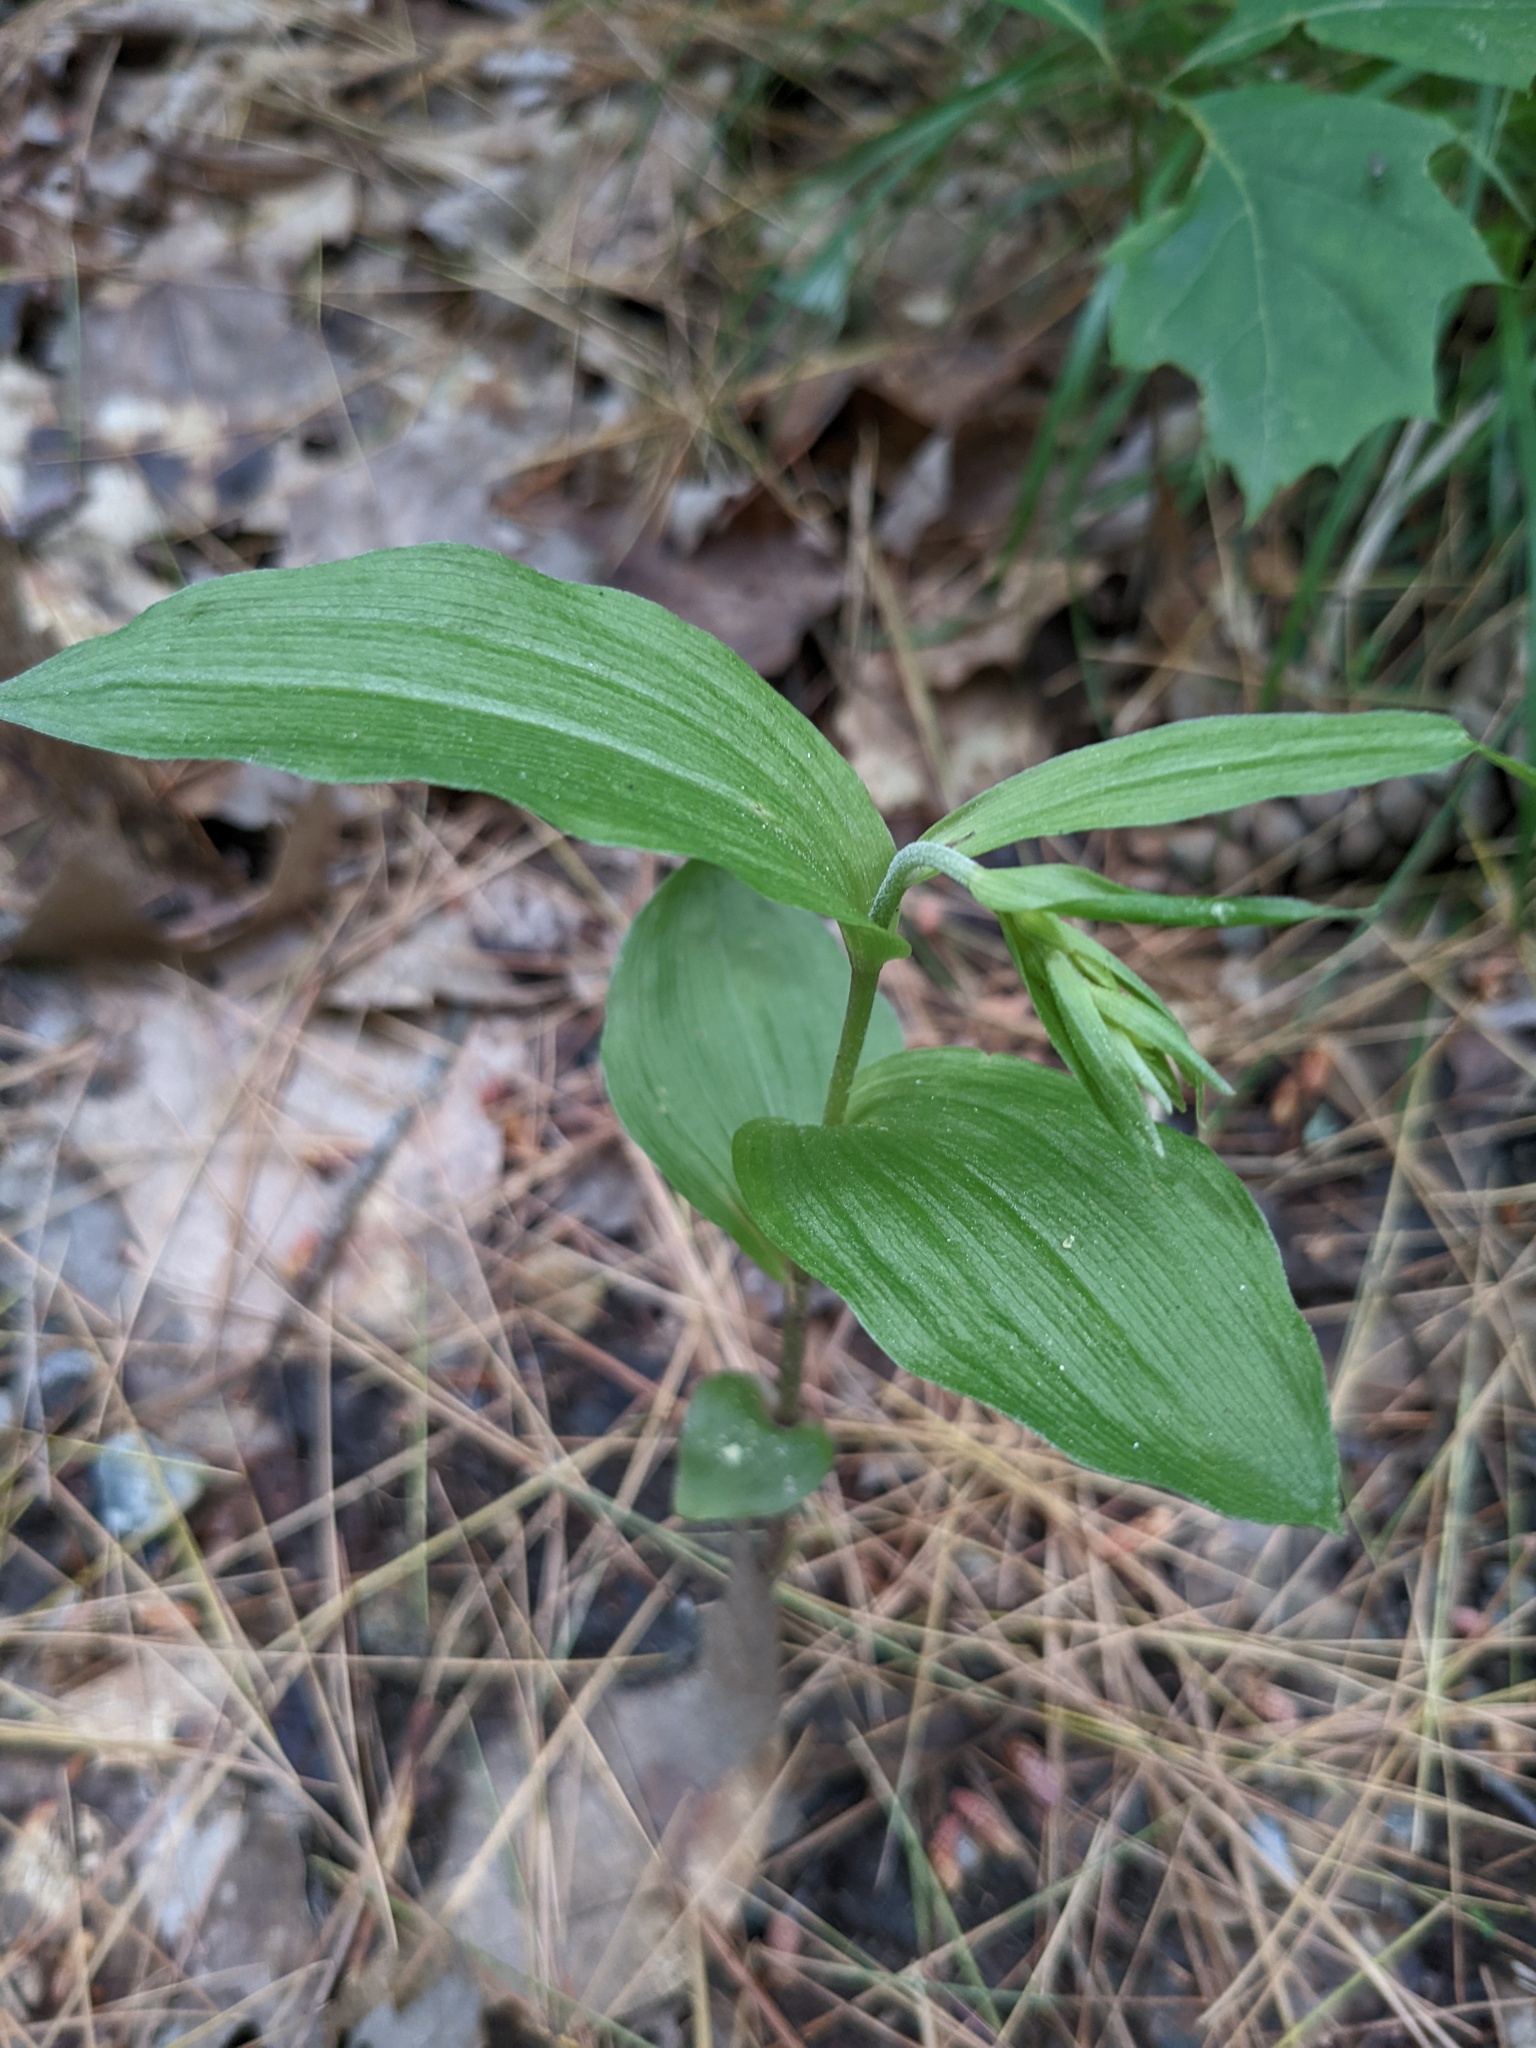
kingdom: Plantae
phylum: Tracheophyta
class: Liliopsida
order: Asparagales
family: Orchidaceae
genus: Epipactis
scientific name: Epipactis helleborine
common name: Broad-leaved helleborine
